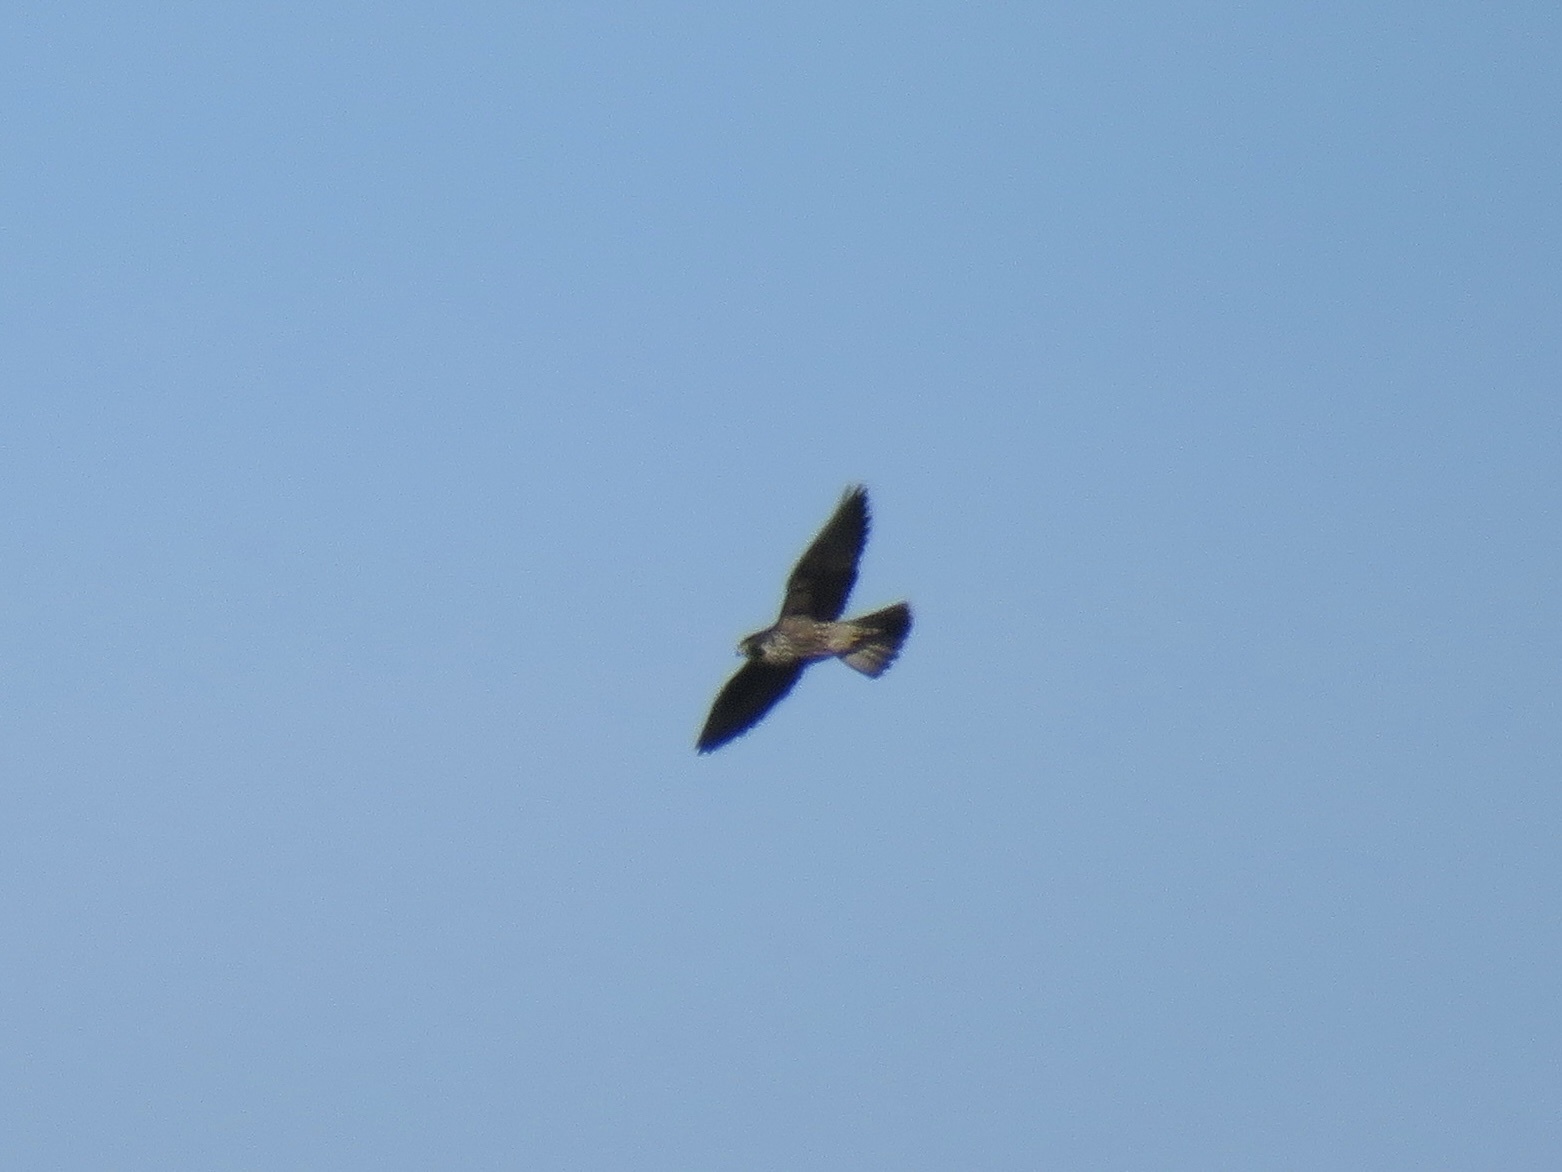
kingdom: Animalia
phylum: Chordata
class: Aves
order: Falconiformes
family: Falconidae
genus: Falco
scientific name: Falco peregrinus
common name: Peregrine falcon
